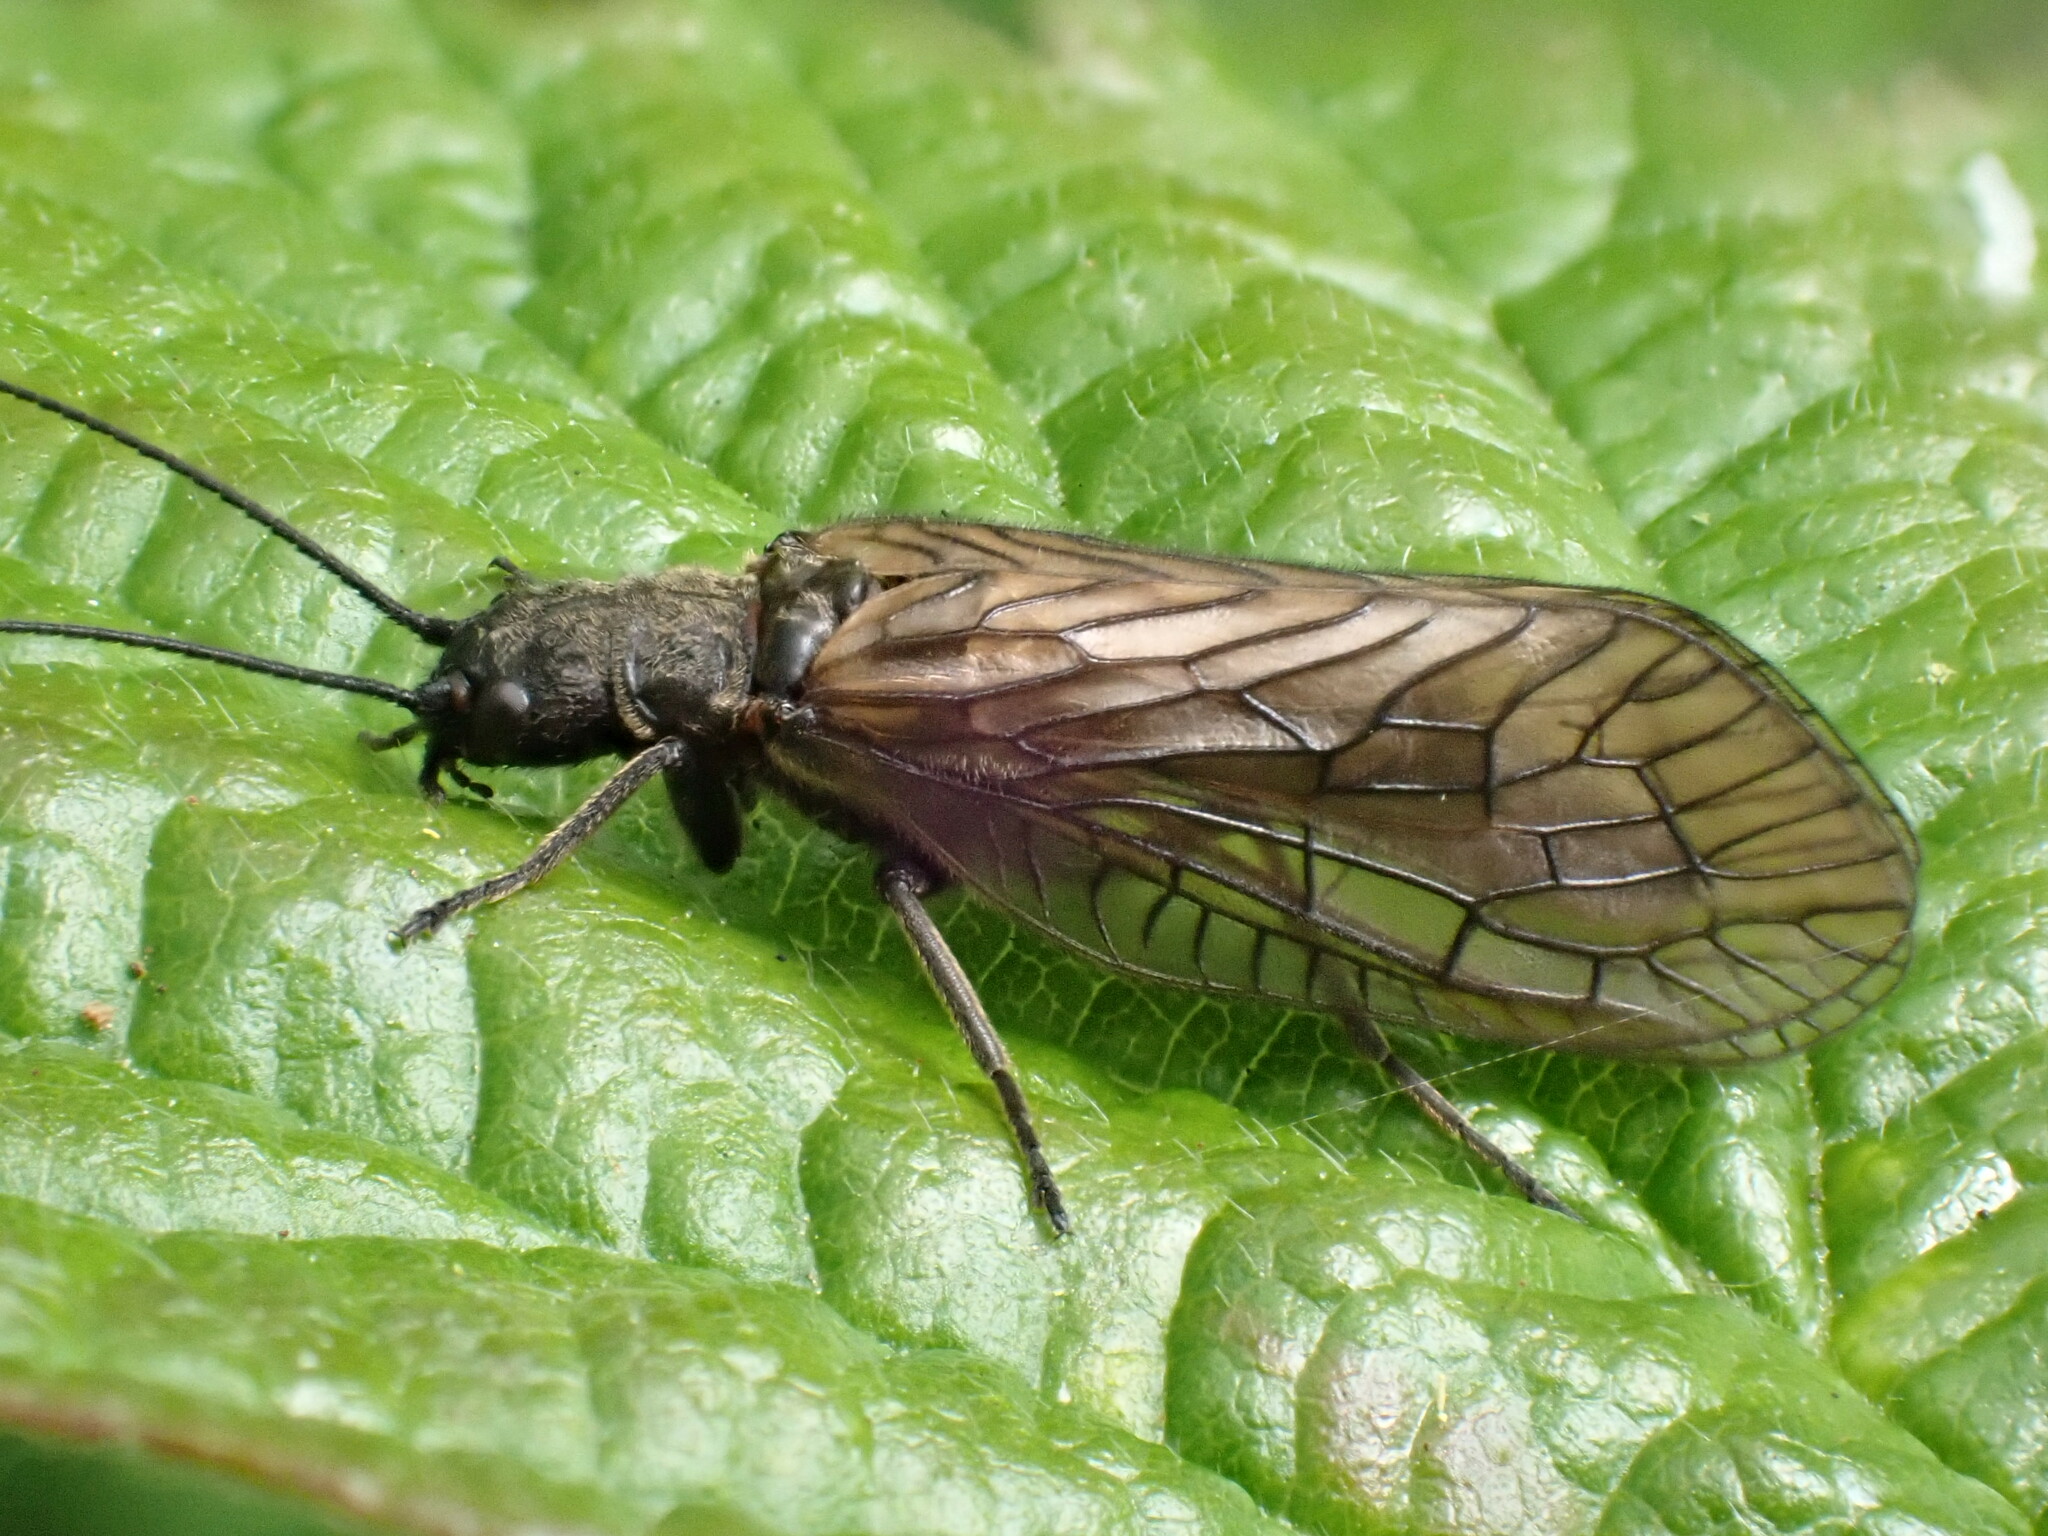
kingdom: Animalia
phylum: Arthropoda
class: Insecta
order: Megaloptera
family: Sialidae
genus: Sialis
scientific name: Sialis
